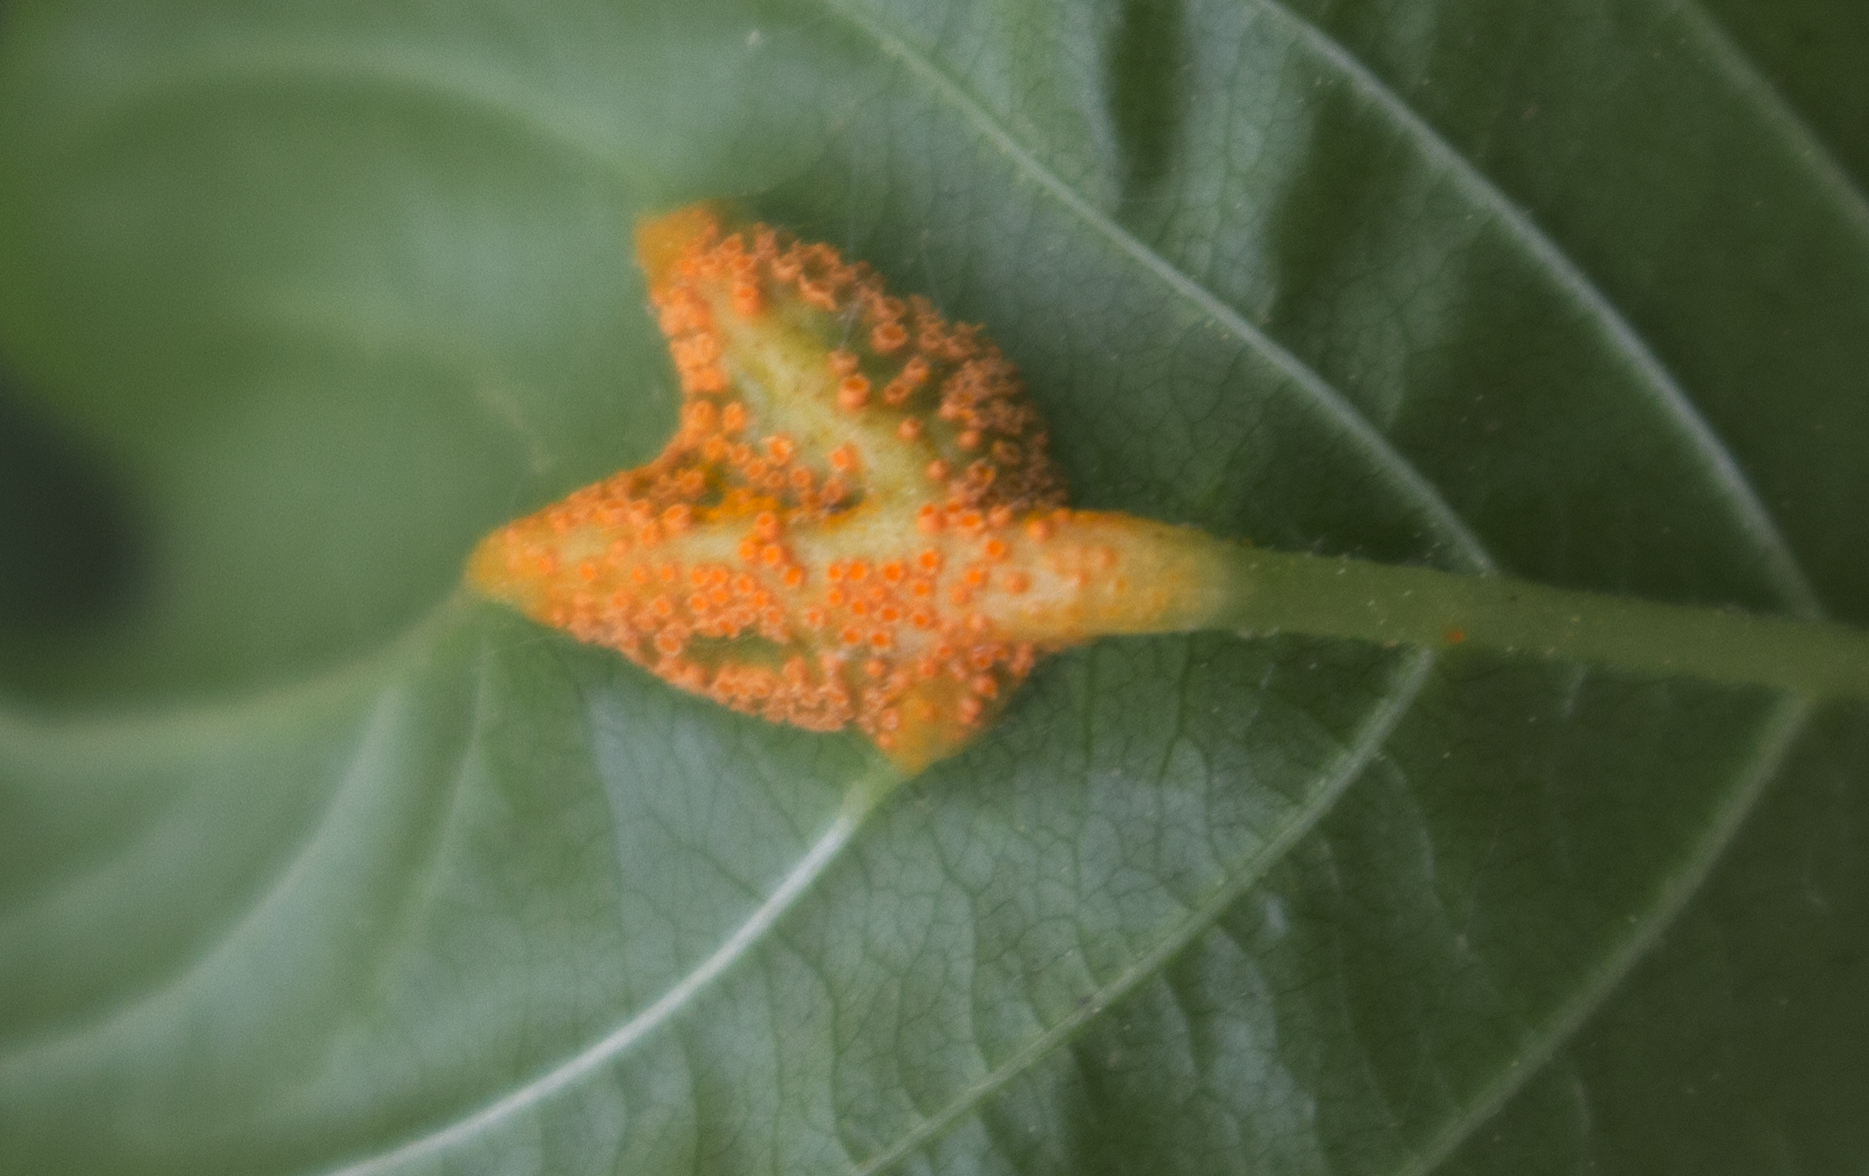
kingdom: Fungi
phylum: Basidiomycota
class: Pucciniomycetes
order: Pucciniales
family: Pucciniaceae
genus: Puccinia
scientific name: Puccinia coronata
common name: Crown rust
